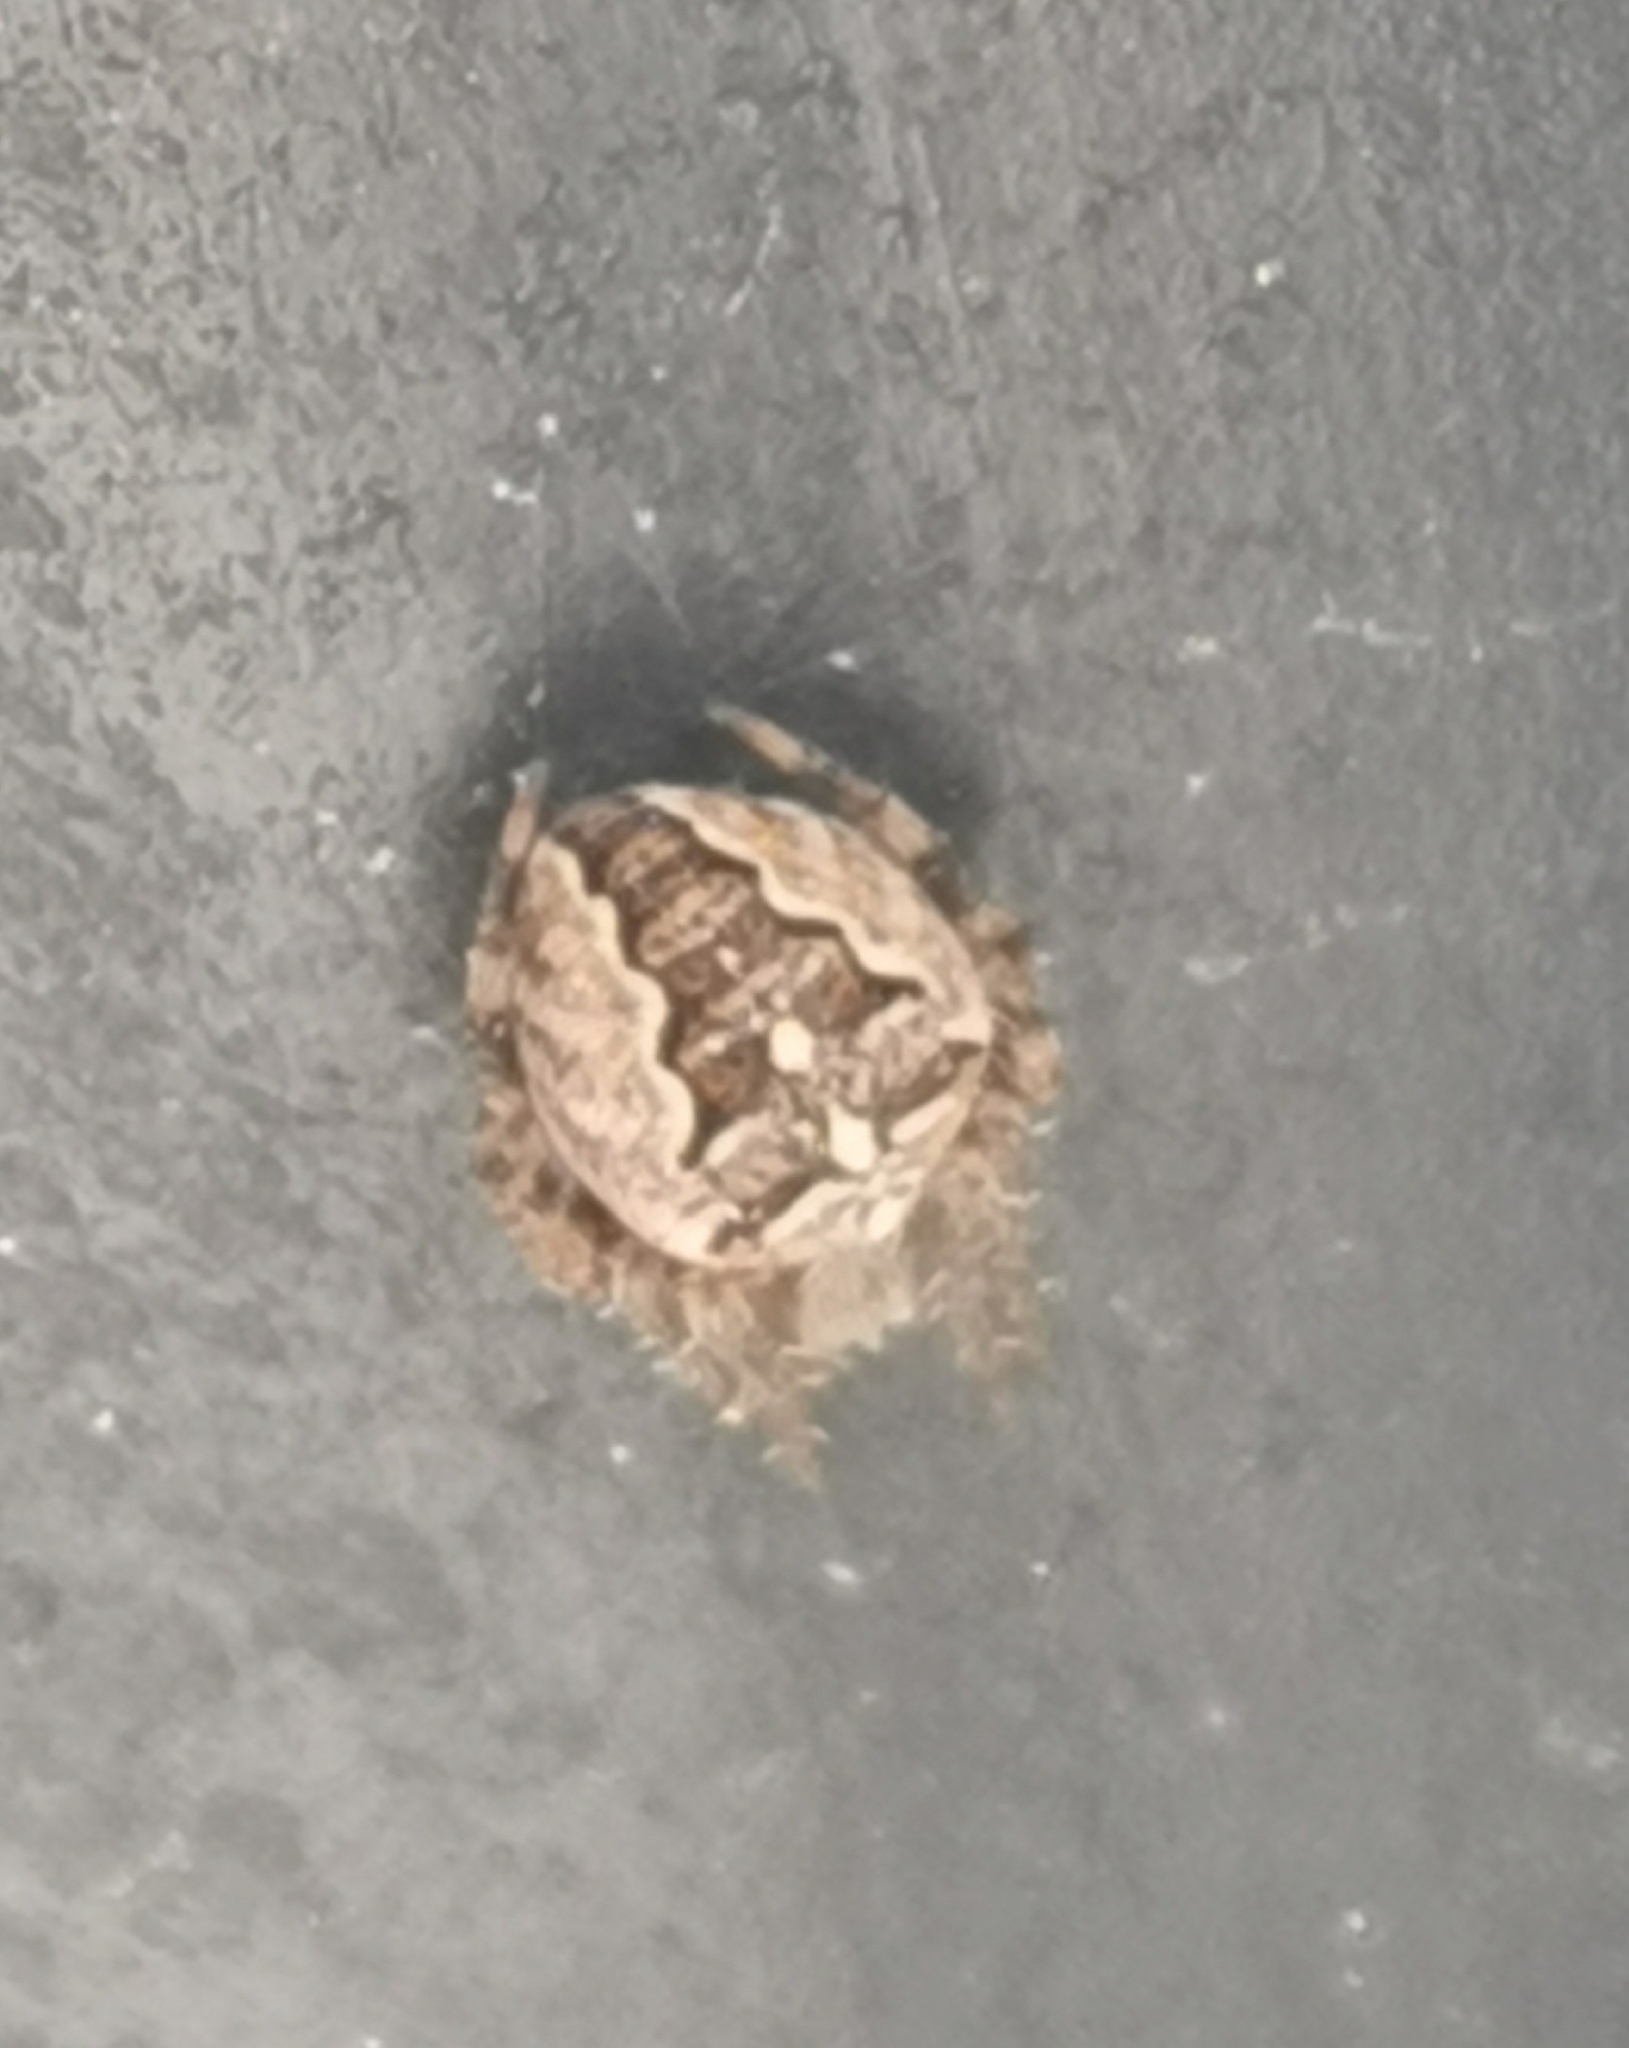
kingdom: Animalia
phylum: Arthropoda
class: Arachnida
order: Araneae
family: Araneidae
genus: Araneus
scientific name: Araneus diadematus
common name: Cross orbweaver
